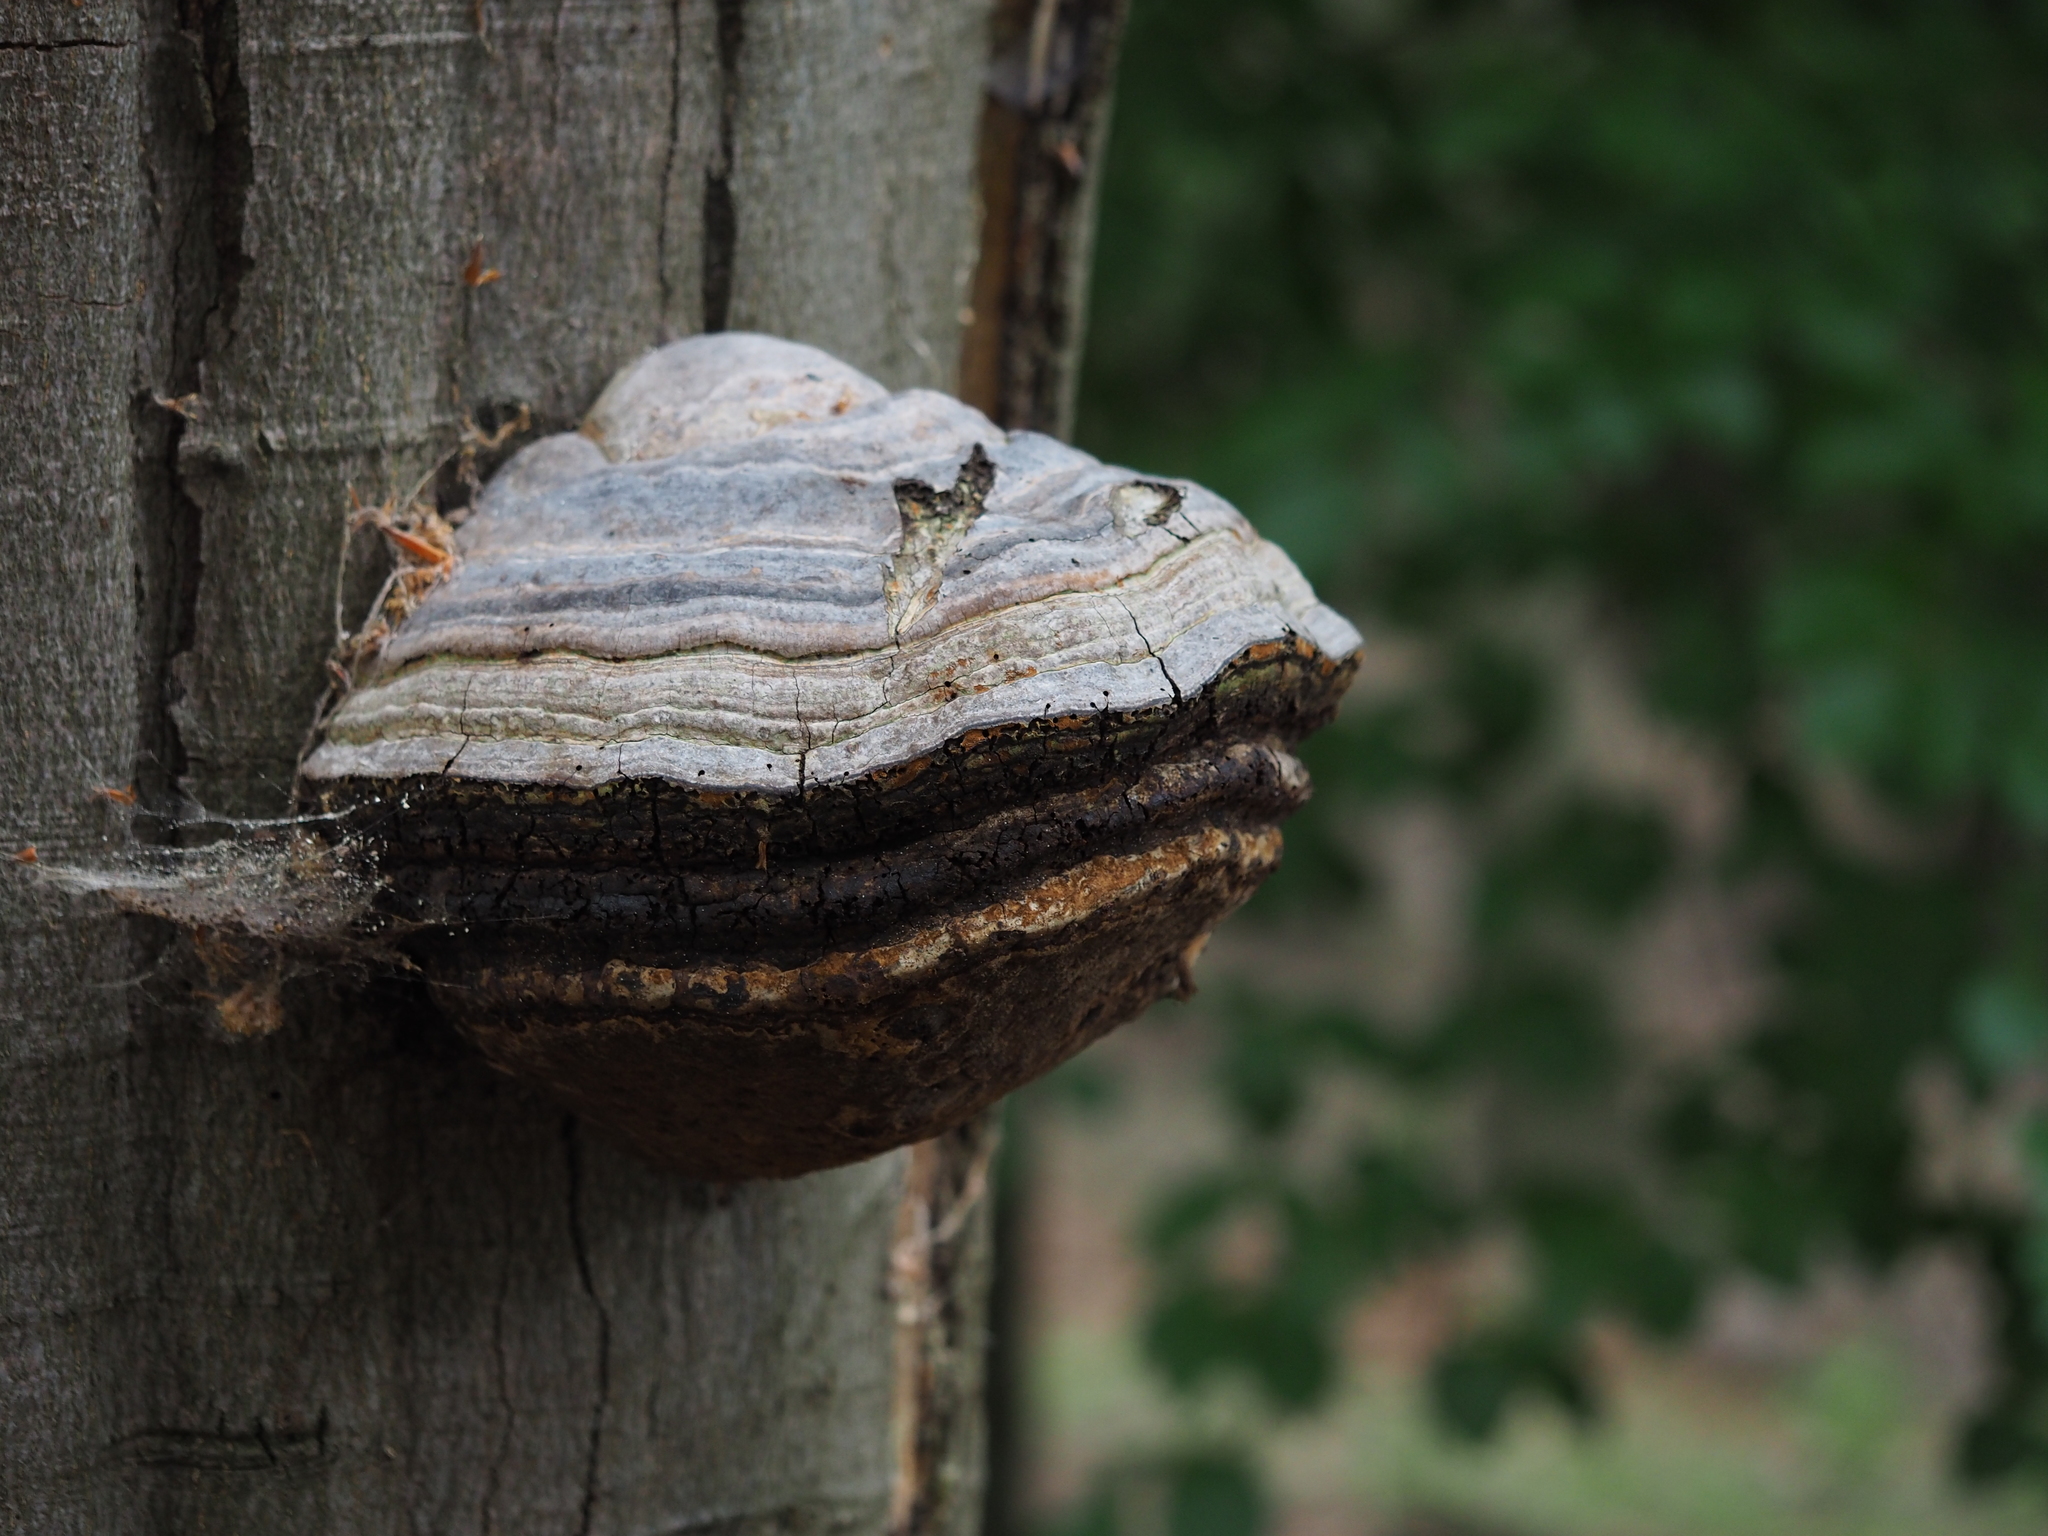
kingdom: Fungi
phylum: Basidiomycota
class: Agaricomycetes
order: Polyporales
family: Polyporaceae
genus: Fomes
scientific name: Fomes fomentarius
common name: Hoof fungus
